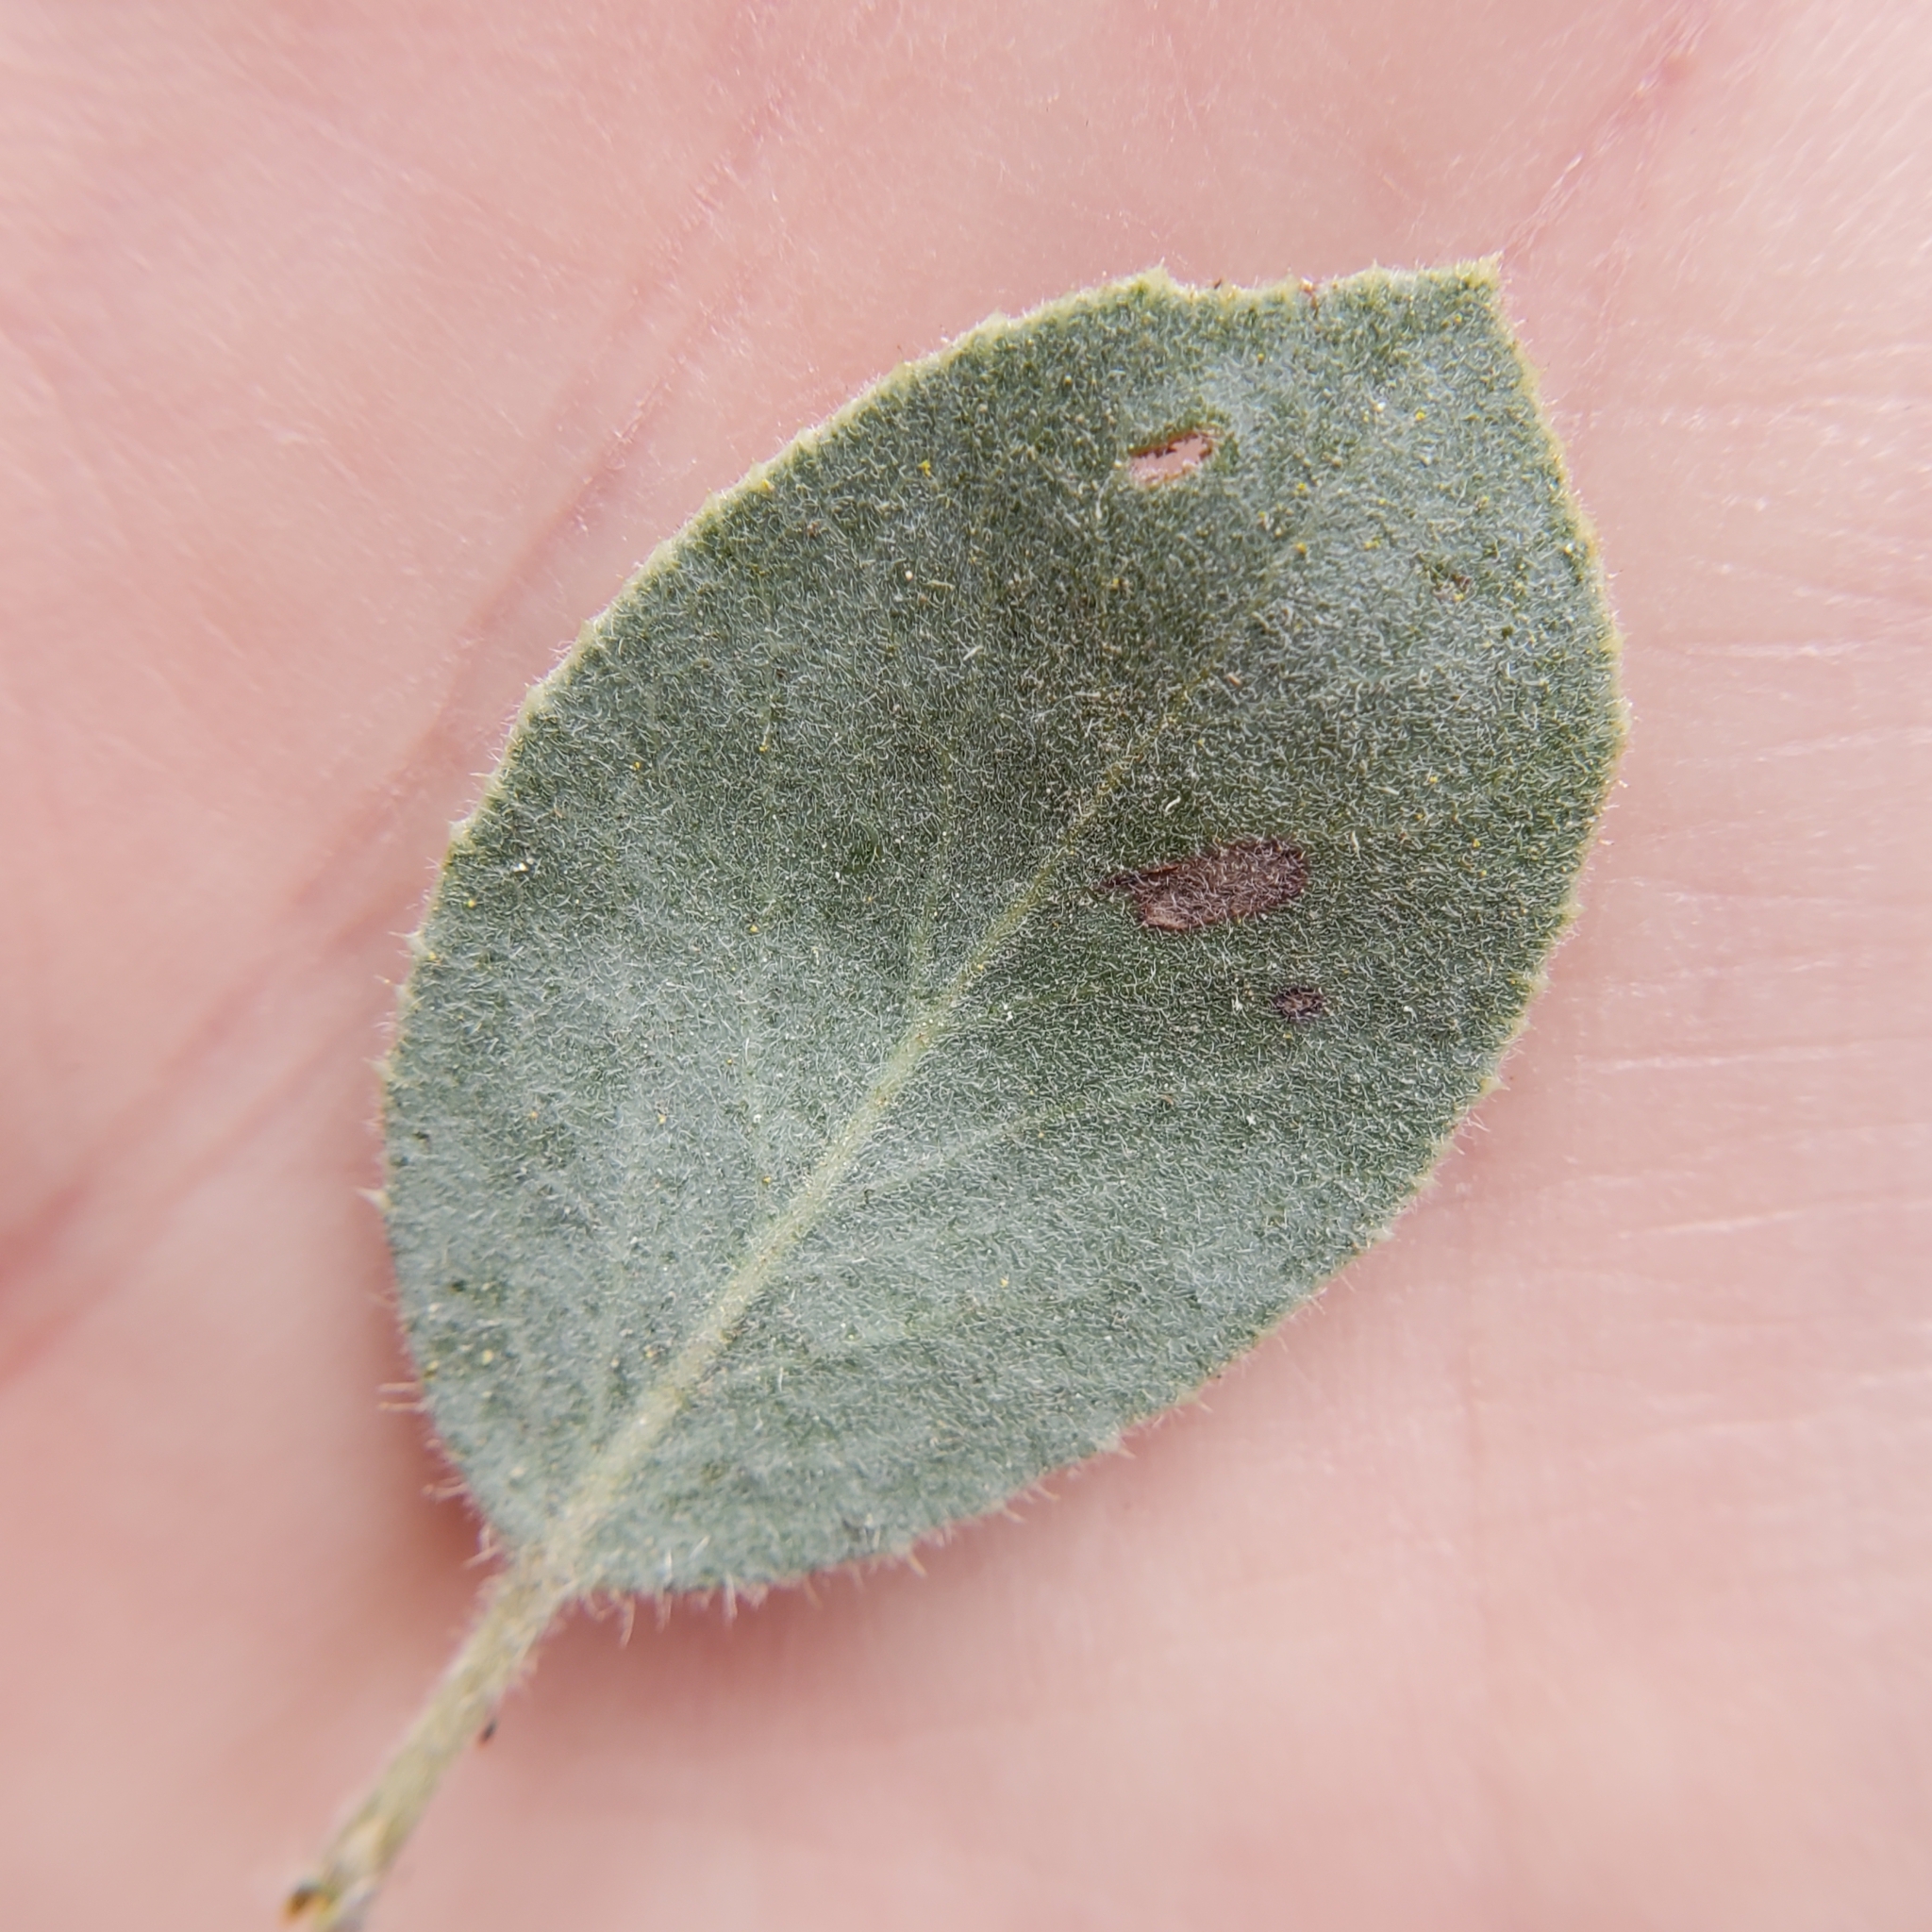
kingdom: Plantae
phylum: Tracheophyta
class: Magnoliopsida
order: Ericales
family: Ericaceae
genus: Arctostaphylos
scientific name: Arctostaphylos glandulosa
